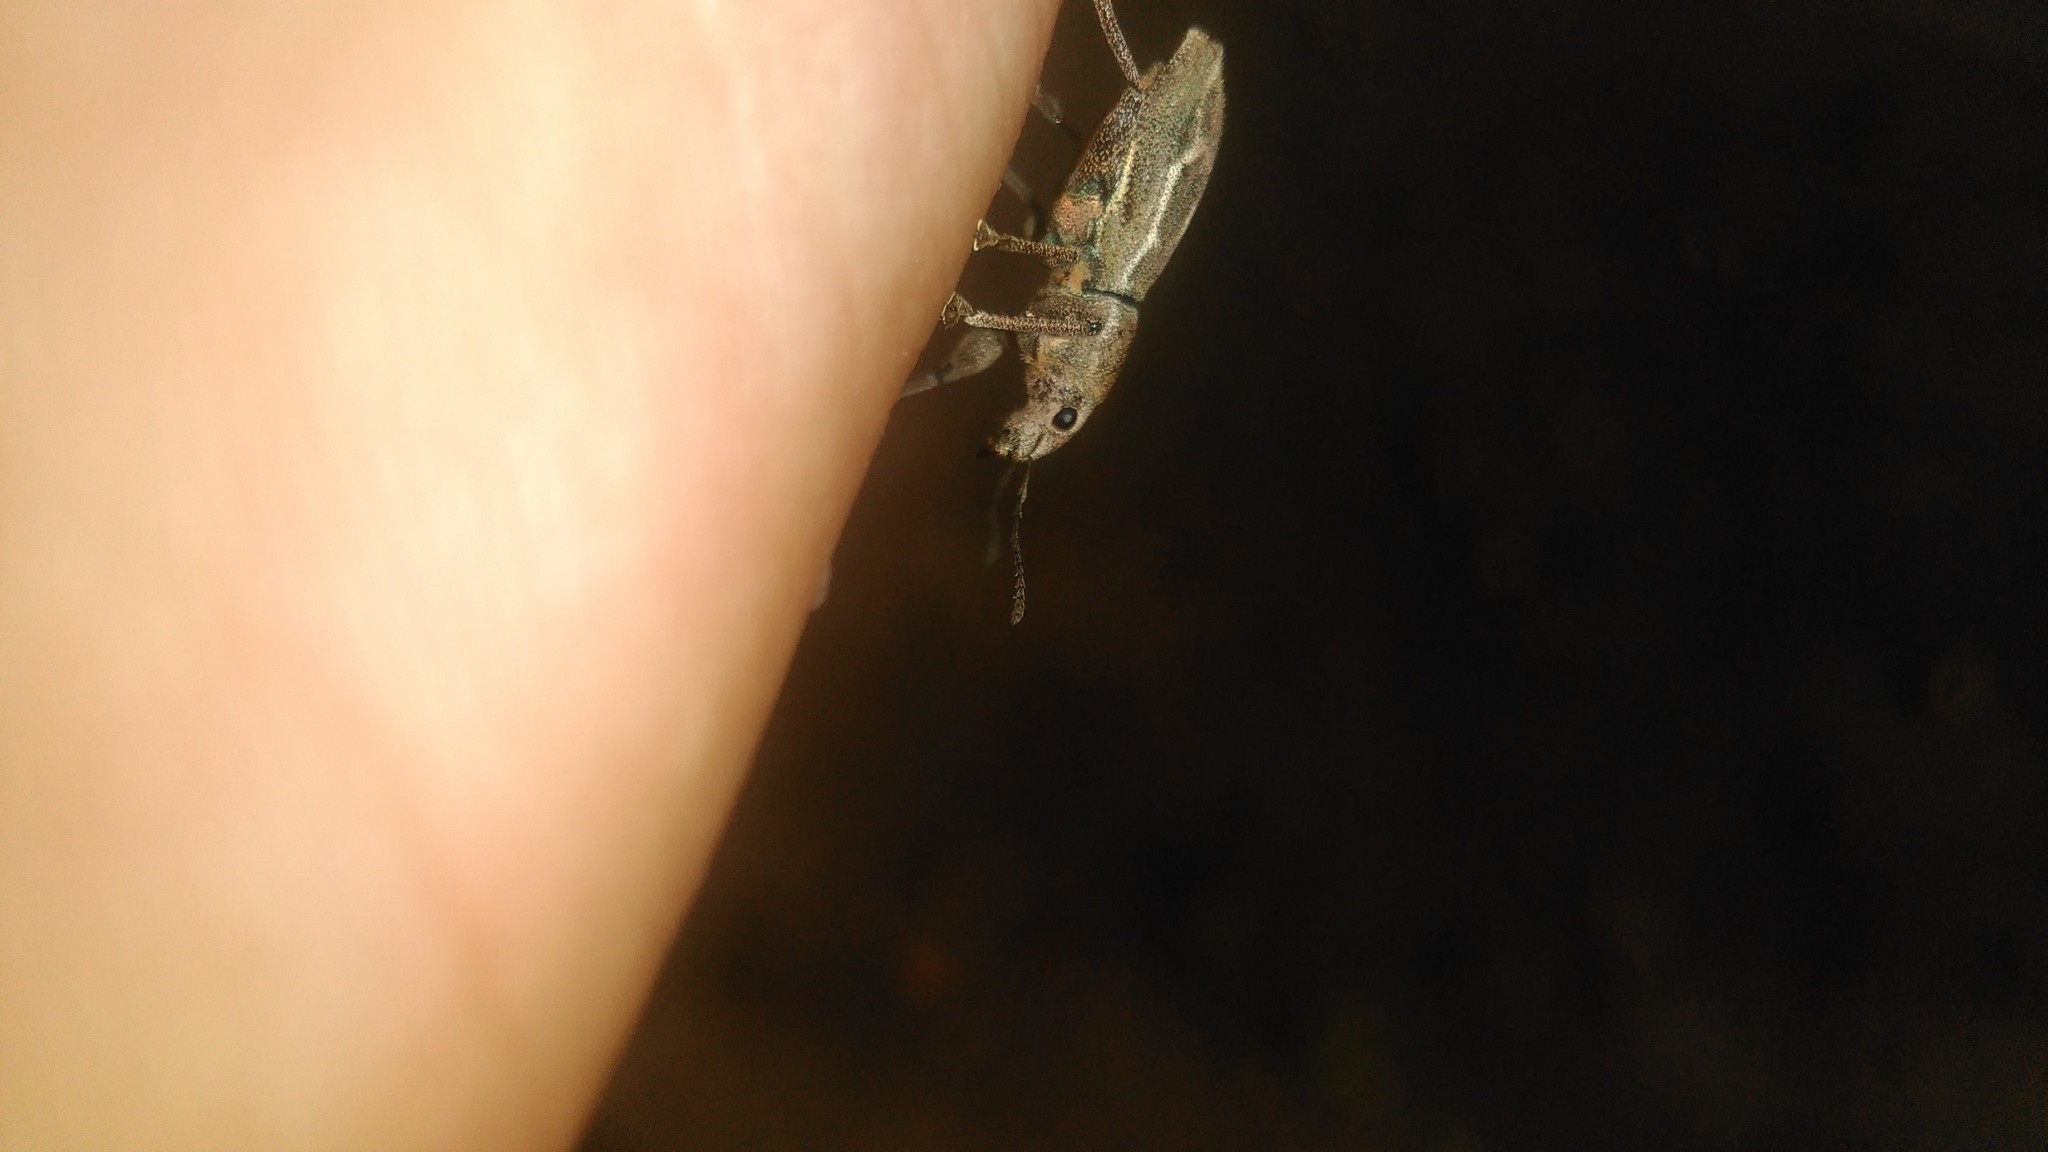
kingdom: Animalia
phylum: Arthropoda
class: Insecta
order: Coleoptera
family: Curculionidae
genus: Naupactus
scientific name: Naupactus dissimulator
